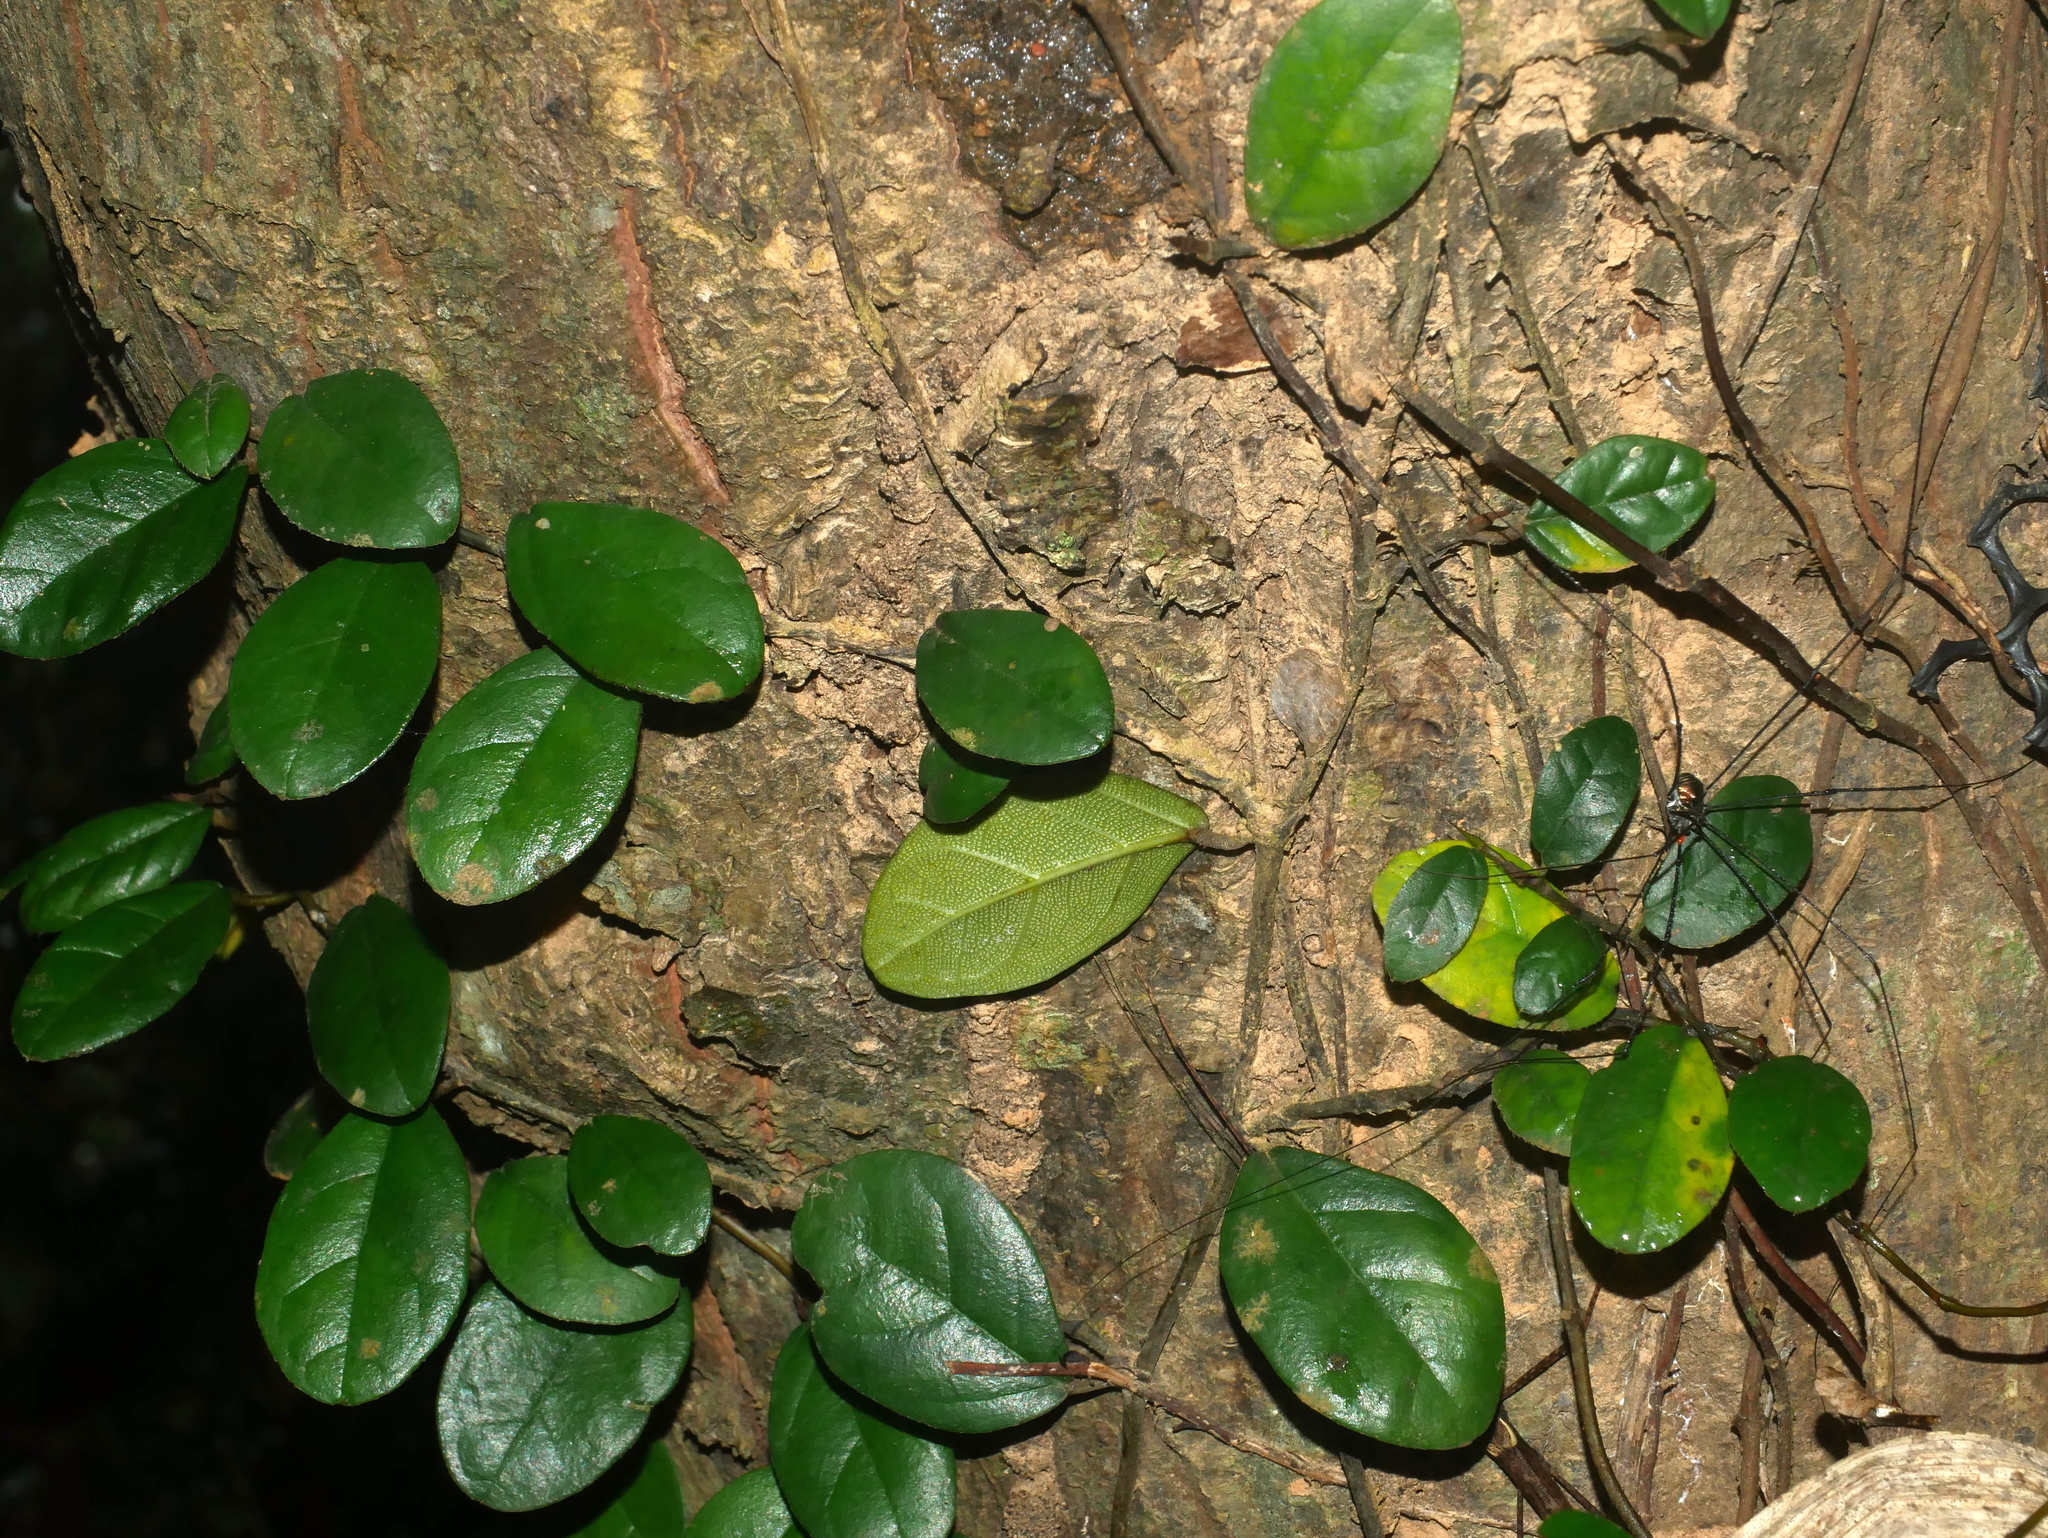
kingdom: Plantae
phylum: Tracheophyta
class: Magnoliopsida
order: Rosales
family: Moraceae
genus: Ficus
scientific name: Ficus punctata
